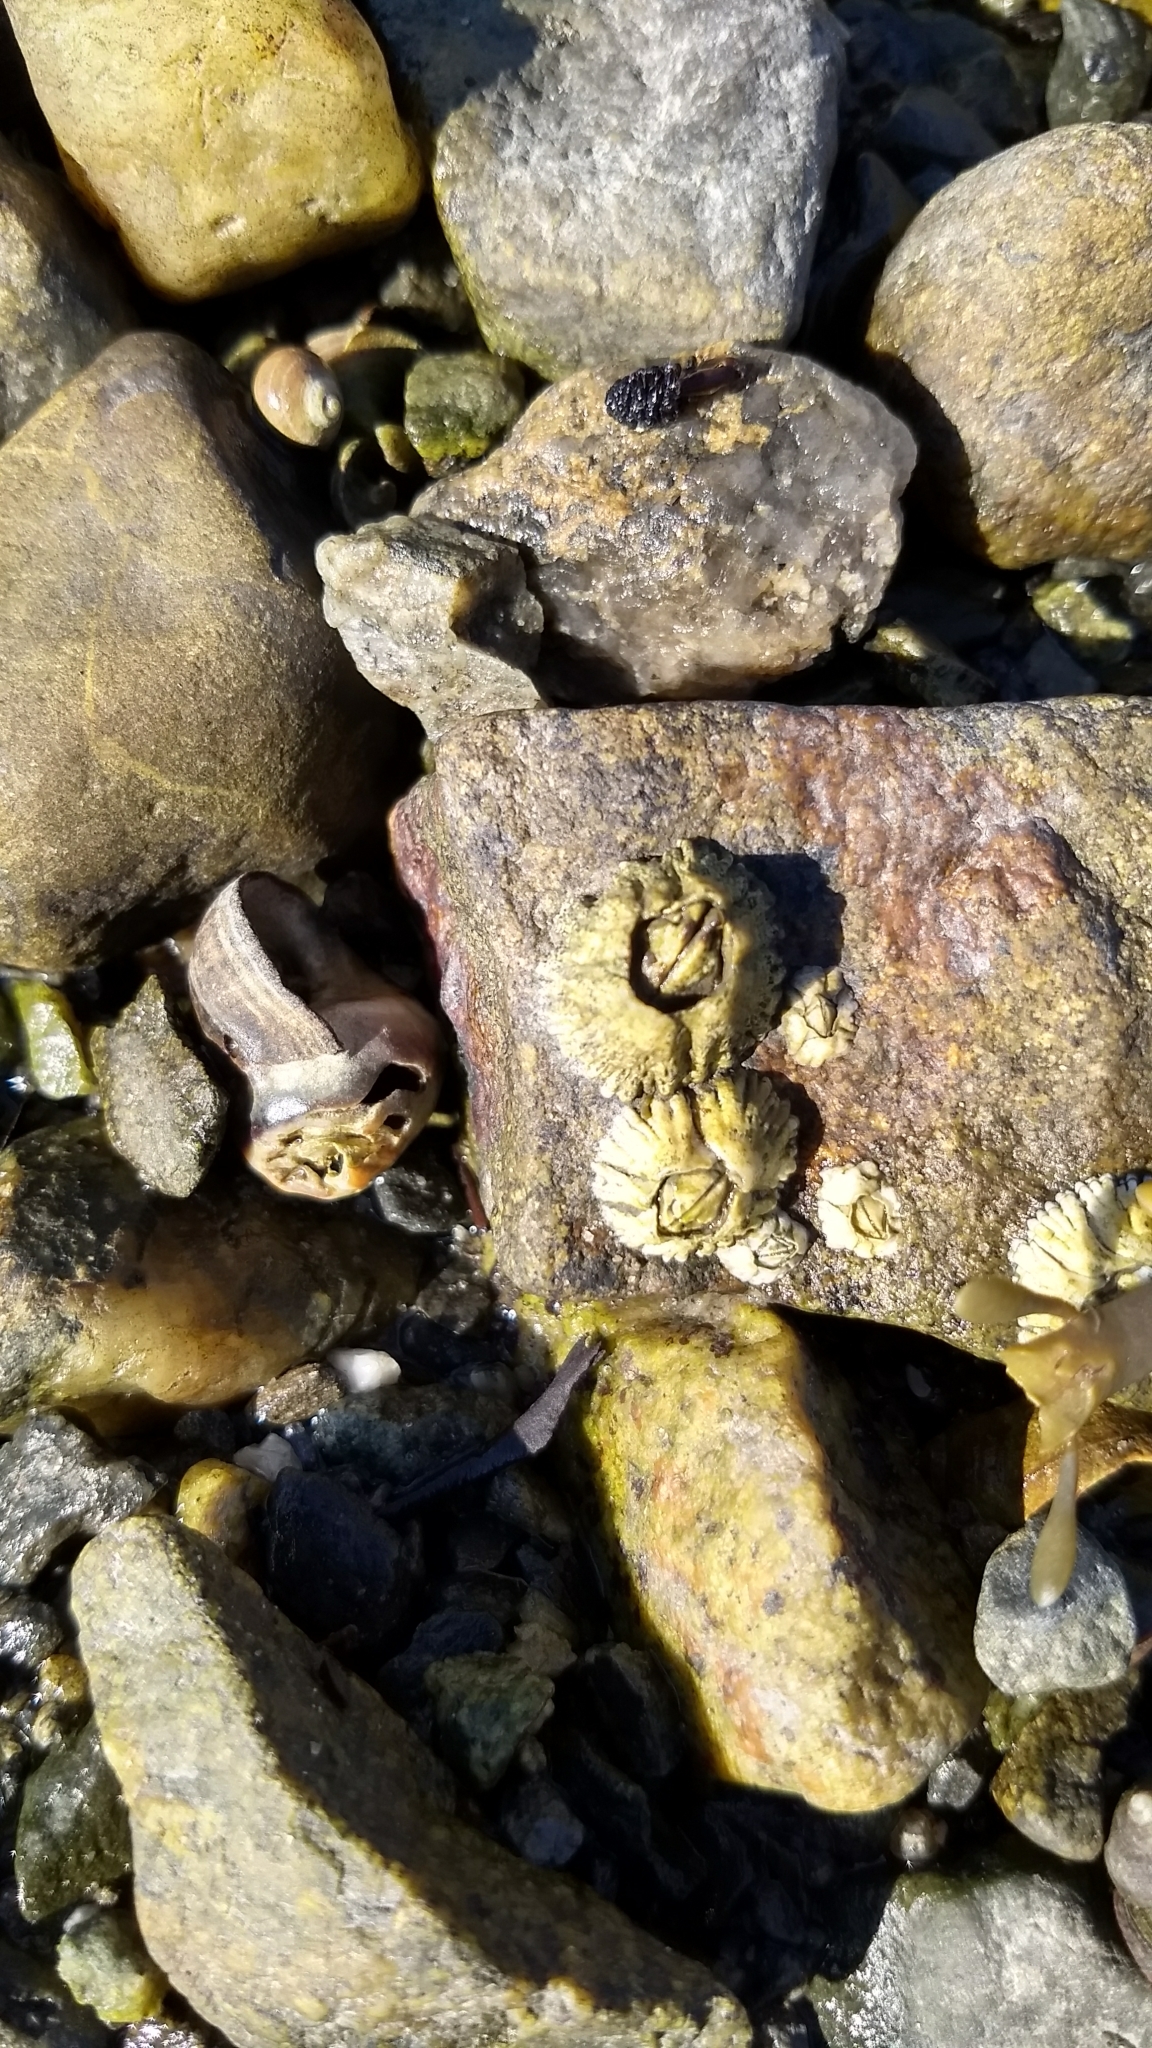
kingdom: Animalia
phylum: Arthropoda
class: Maxillopoda
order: Sessilia
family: Archaeobalanidae
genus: Semibalanus
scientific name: Semibalanus balanoides
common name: Acorn barnacle
